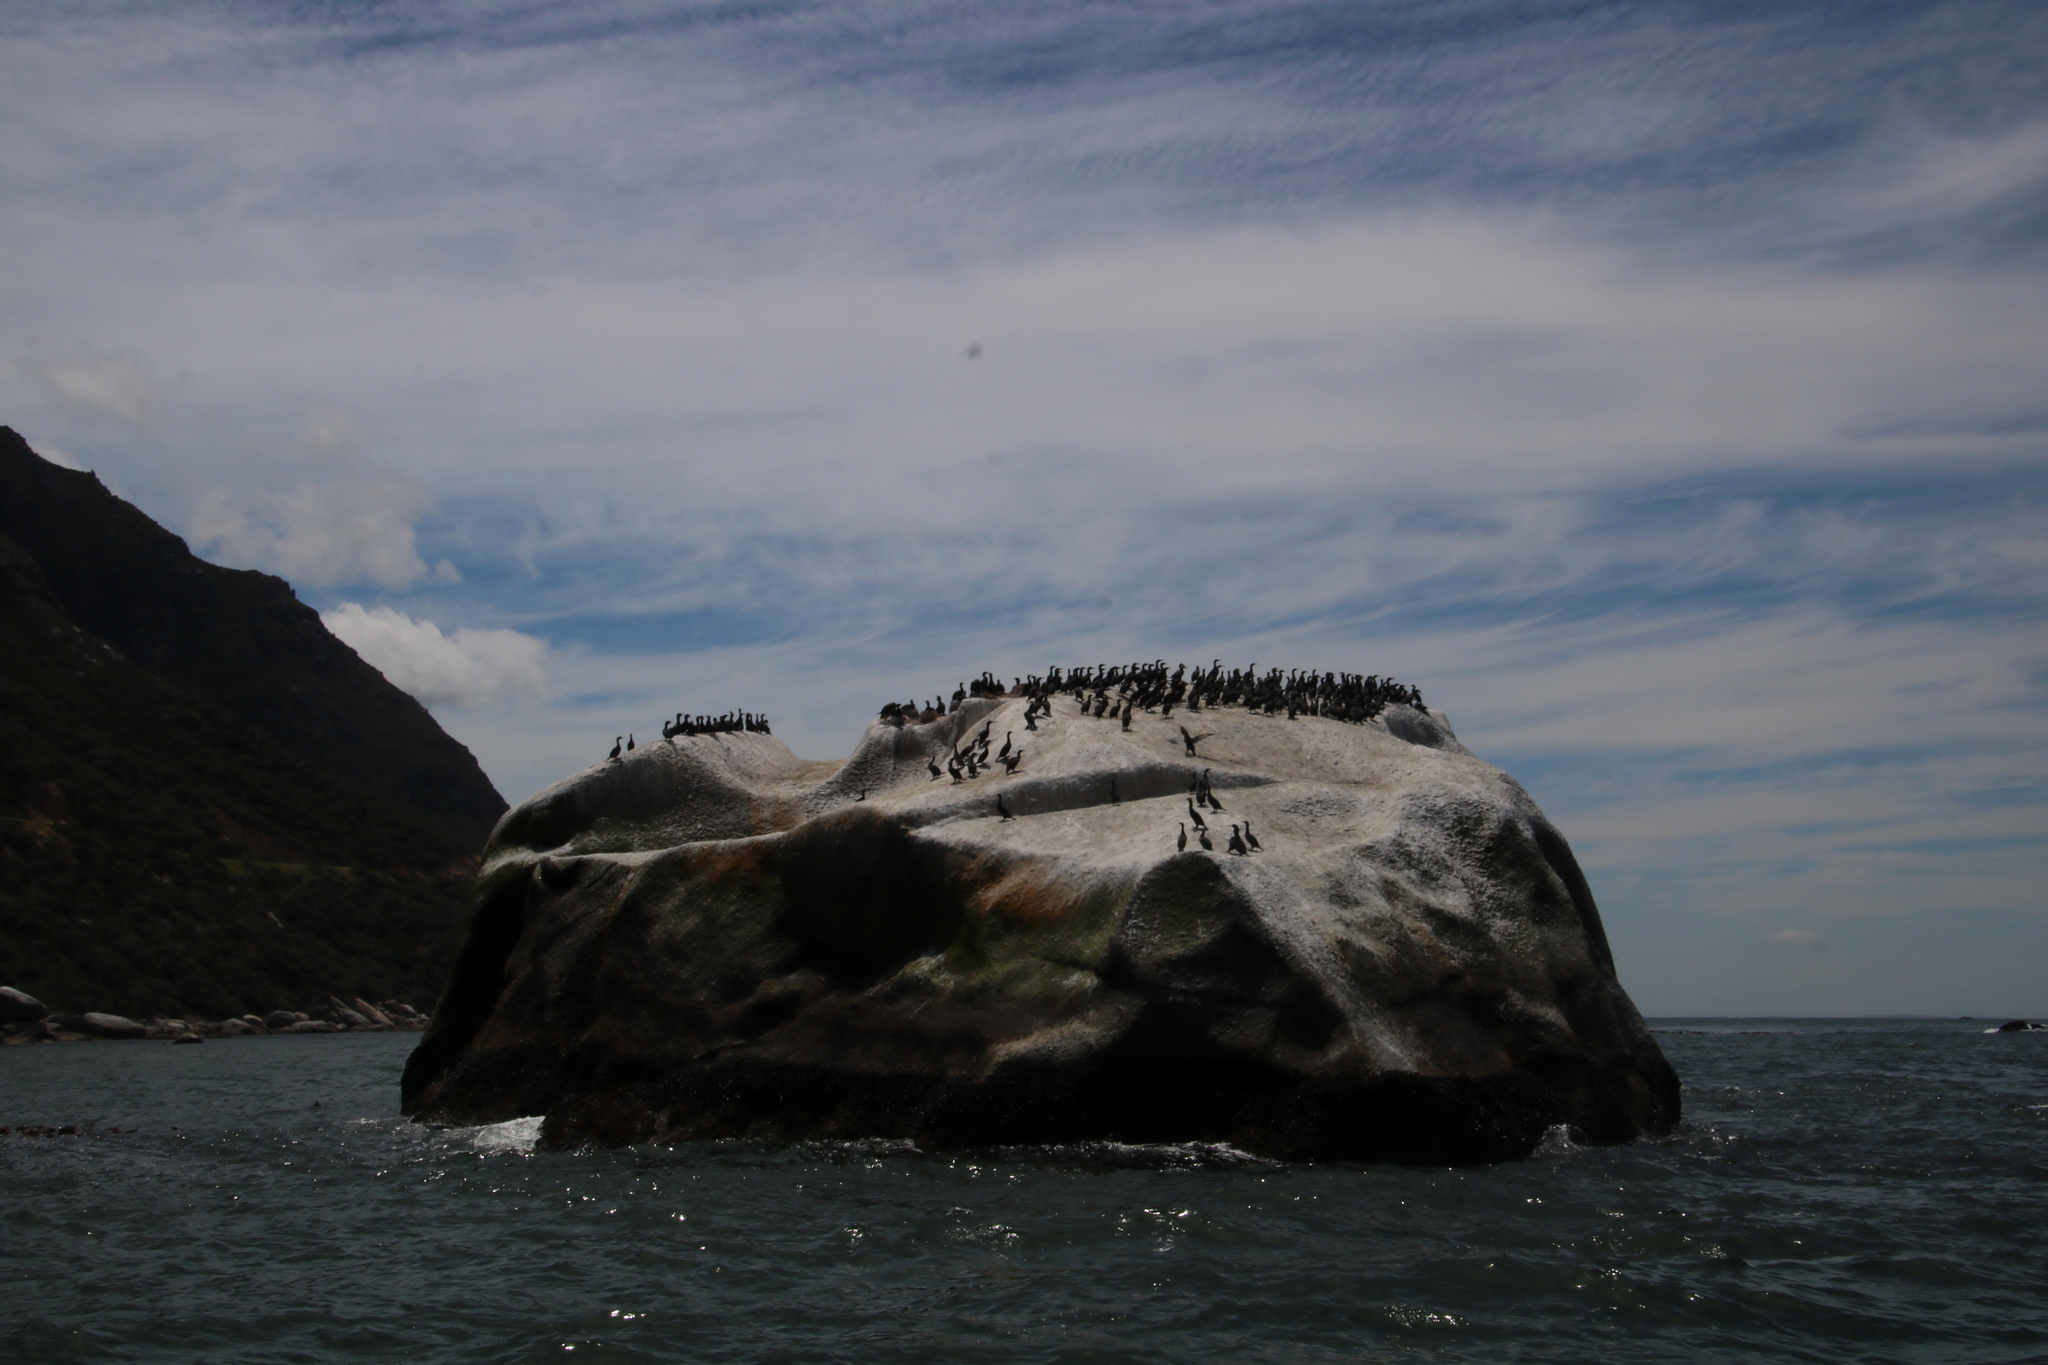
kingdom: Animalia
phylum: Chordata
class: Aves
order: Suliformes
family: Phalacrocoracidae
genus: Phalacrocorax
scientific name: Phalacrocorax capensis
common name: Cape cormorant
